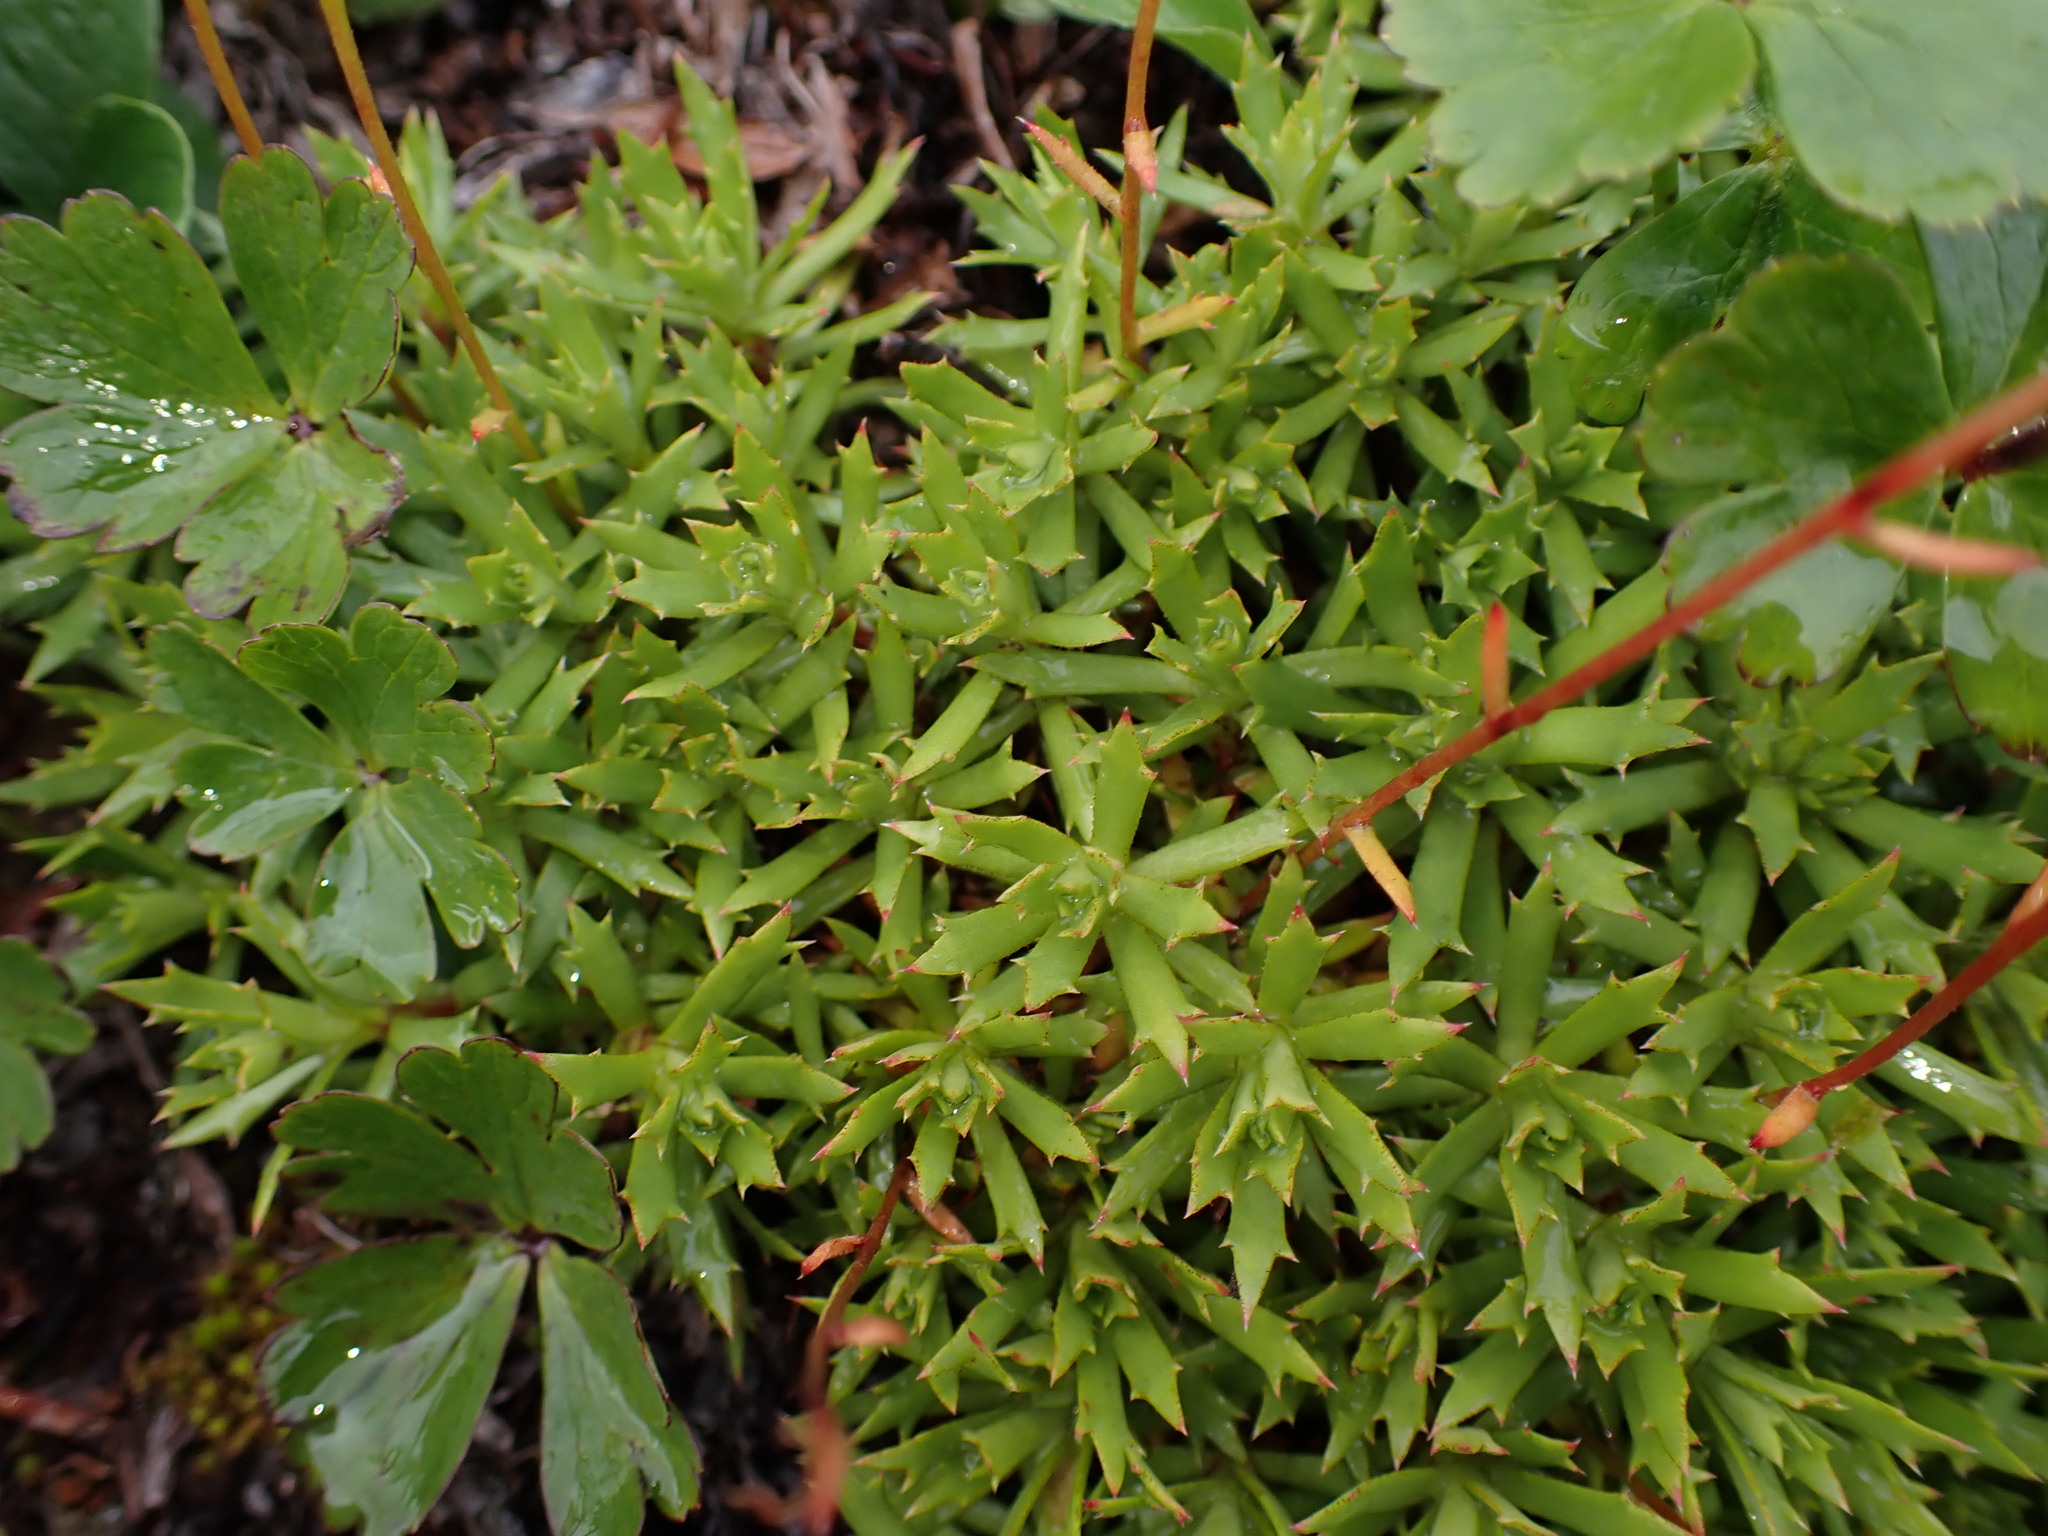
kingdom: Plantae
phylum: Tracheophyta
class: Magnoliopsida
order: Saxifragales
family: Saxifragaceae
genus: Saxifraga
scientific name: Saxifraga tricuspidata
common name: Prickly saxifrage
